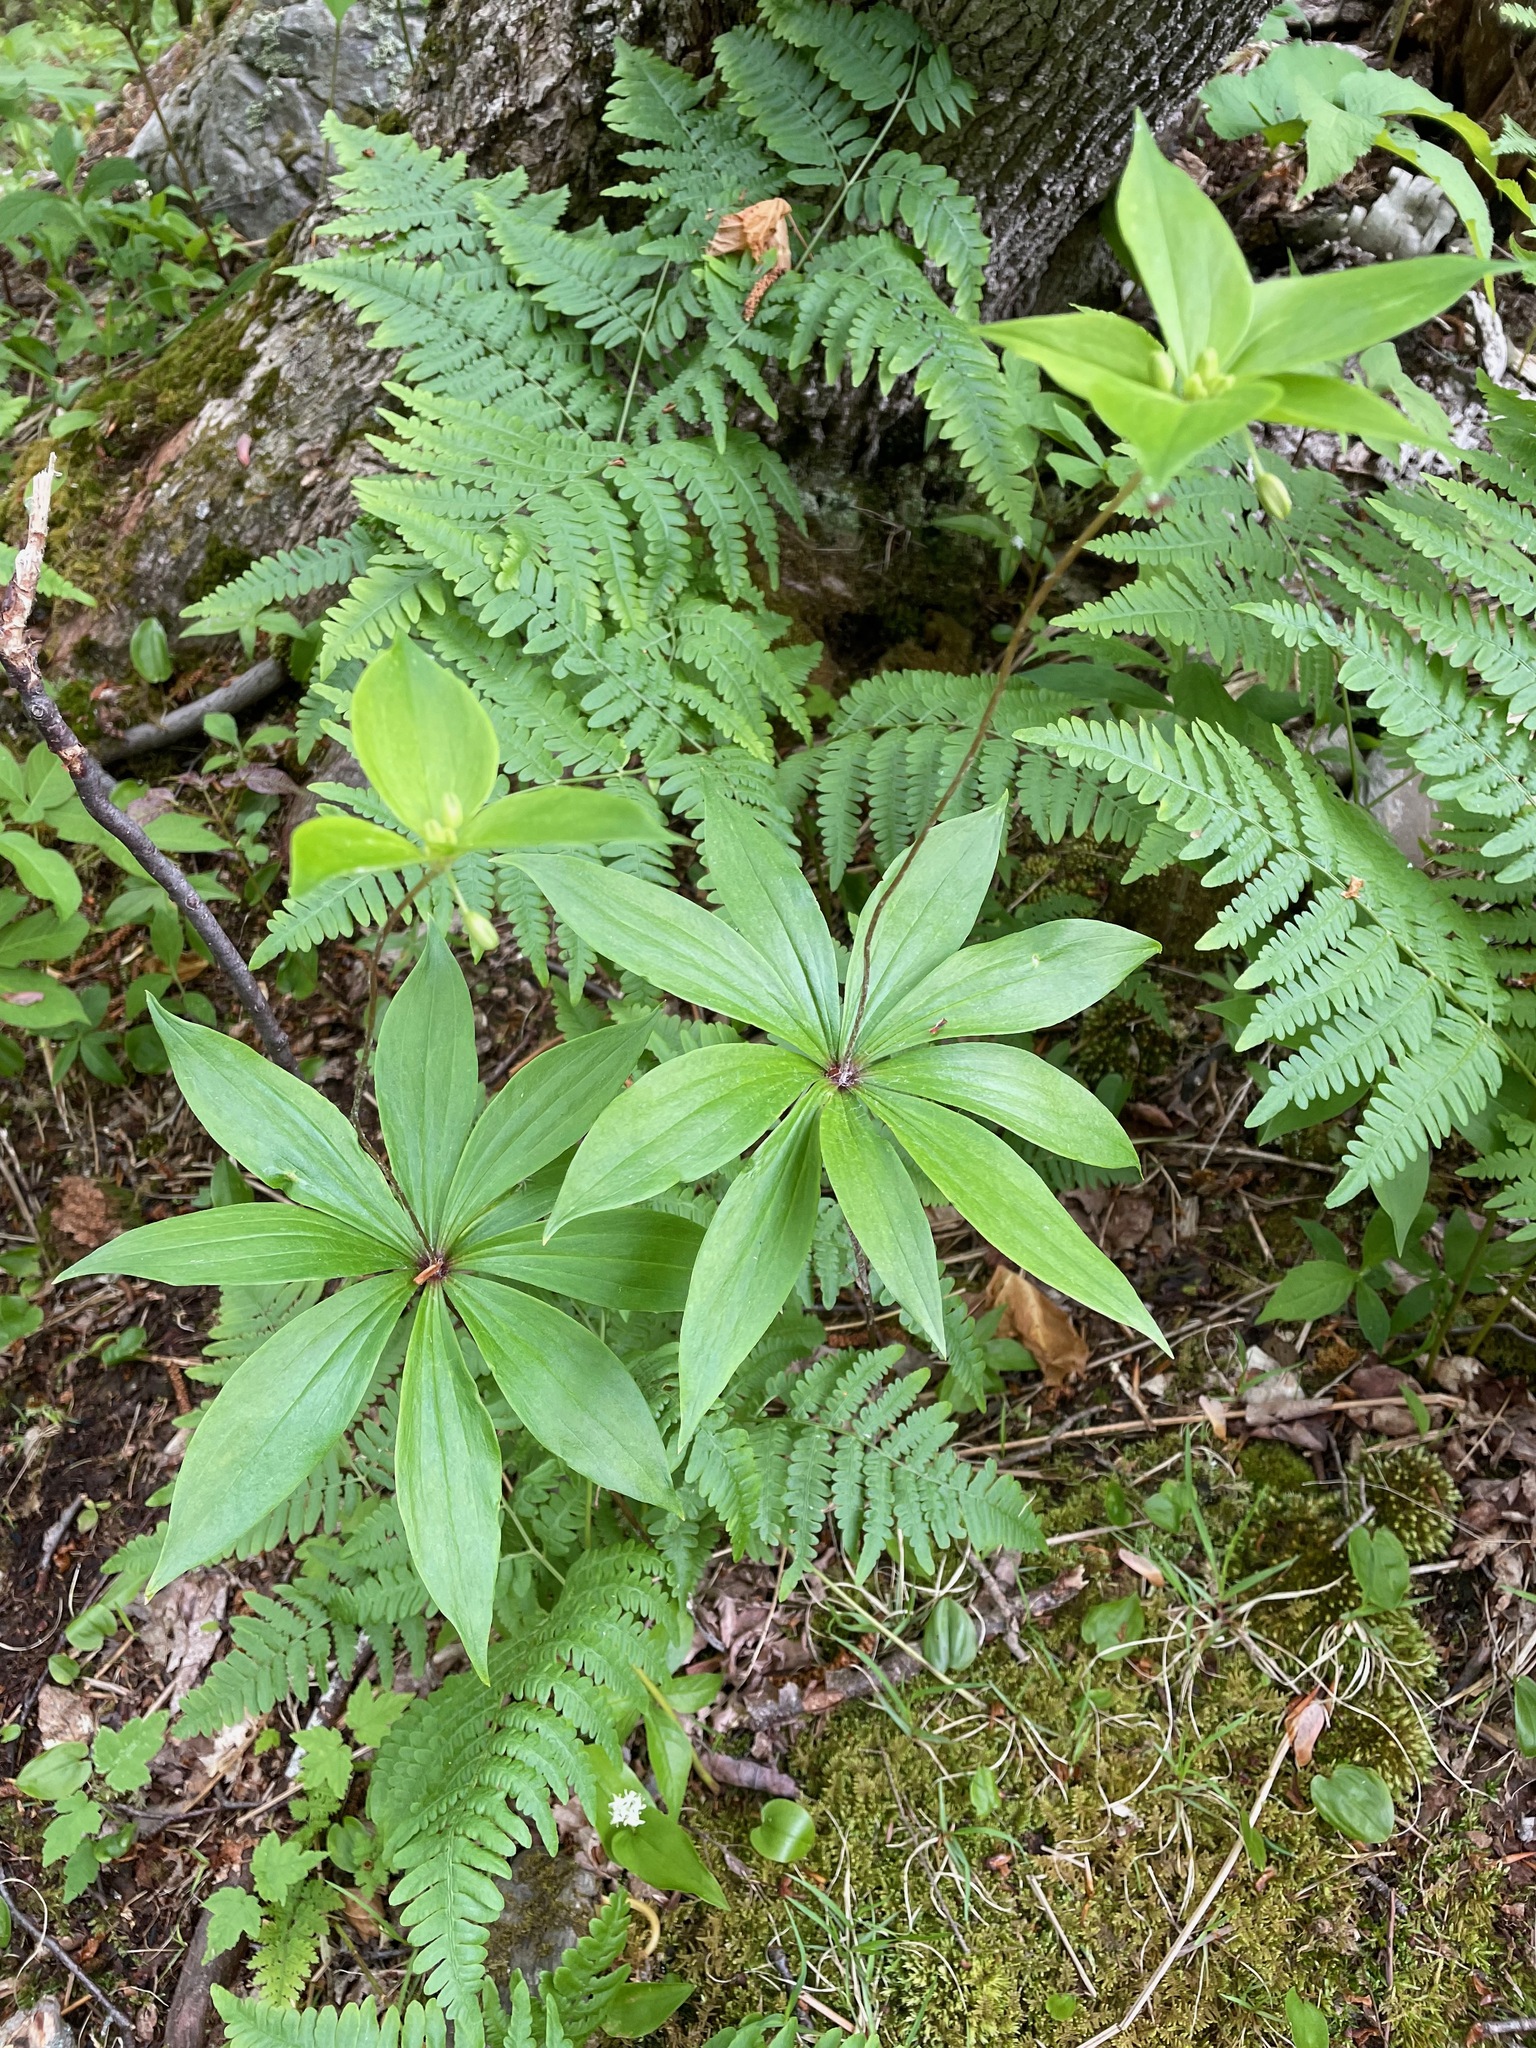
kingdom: Plantae
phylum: Tracheophyta
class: Liliopsida
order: Liliales
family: Liliaceae
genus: Medeola
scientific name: Medeola virginiana
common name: Indian cucumber-root
